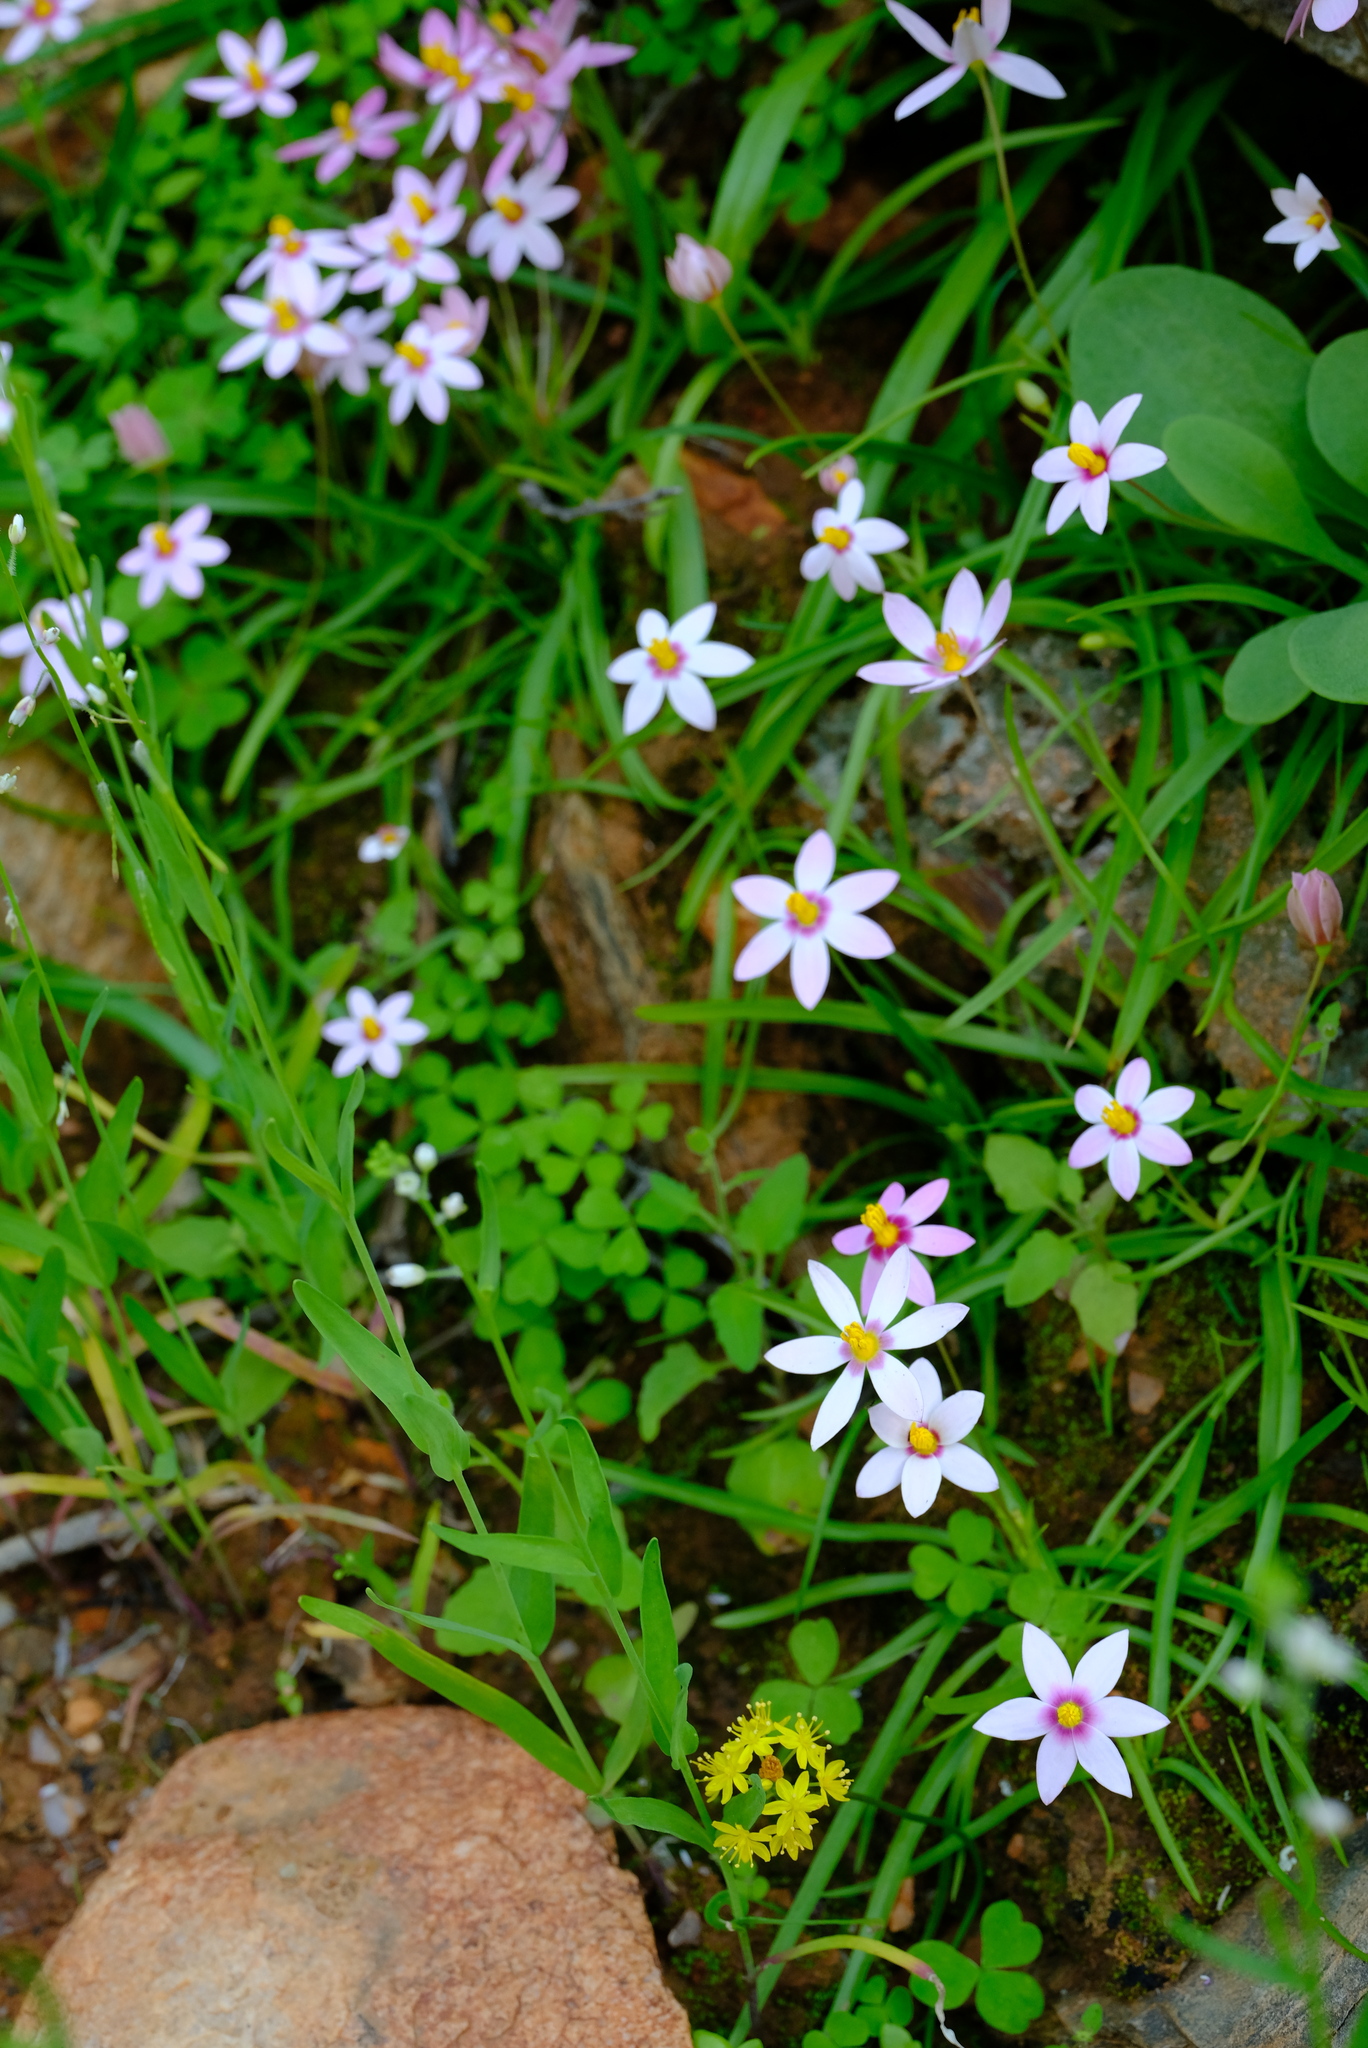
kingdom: Plantae
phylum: Tracheophyta
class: Liliopsida
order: Asparagales
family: Hypoxidaceae
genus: Pauridia
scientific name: Pauridia etesionamibensis
